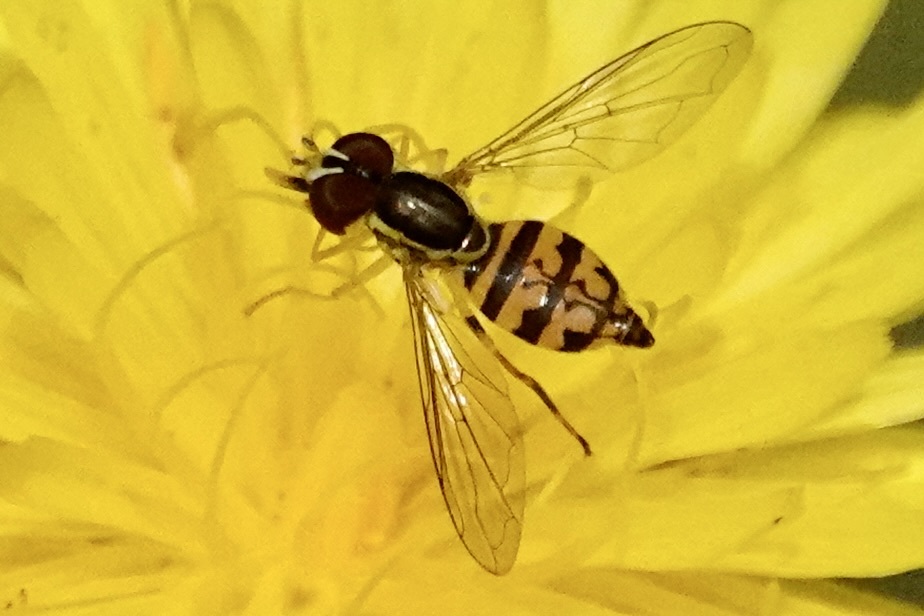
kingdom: Animalia
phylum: Arthropoda
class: Insecta
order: Diptera
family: Syrphidae
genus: Toxomerus
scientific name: Toxomerus geminatus
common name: Eastern calligrapher
